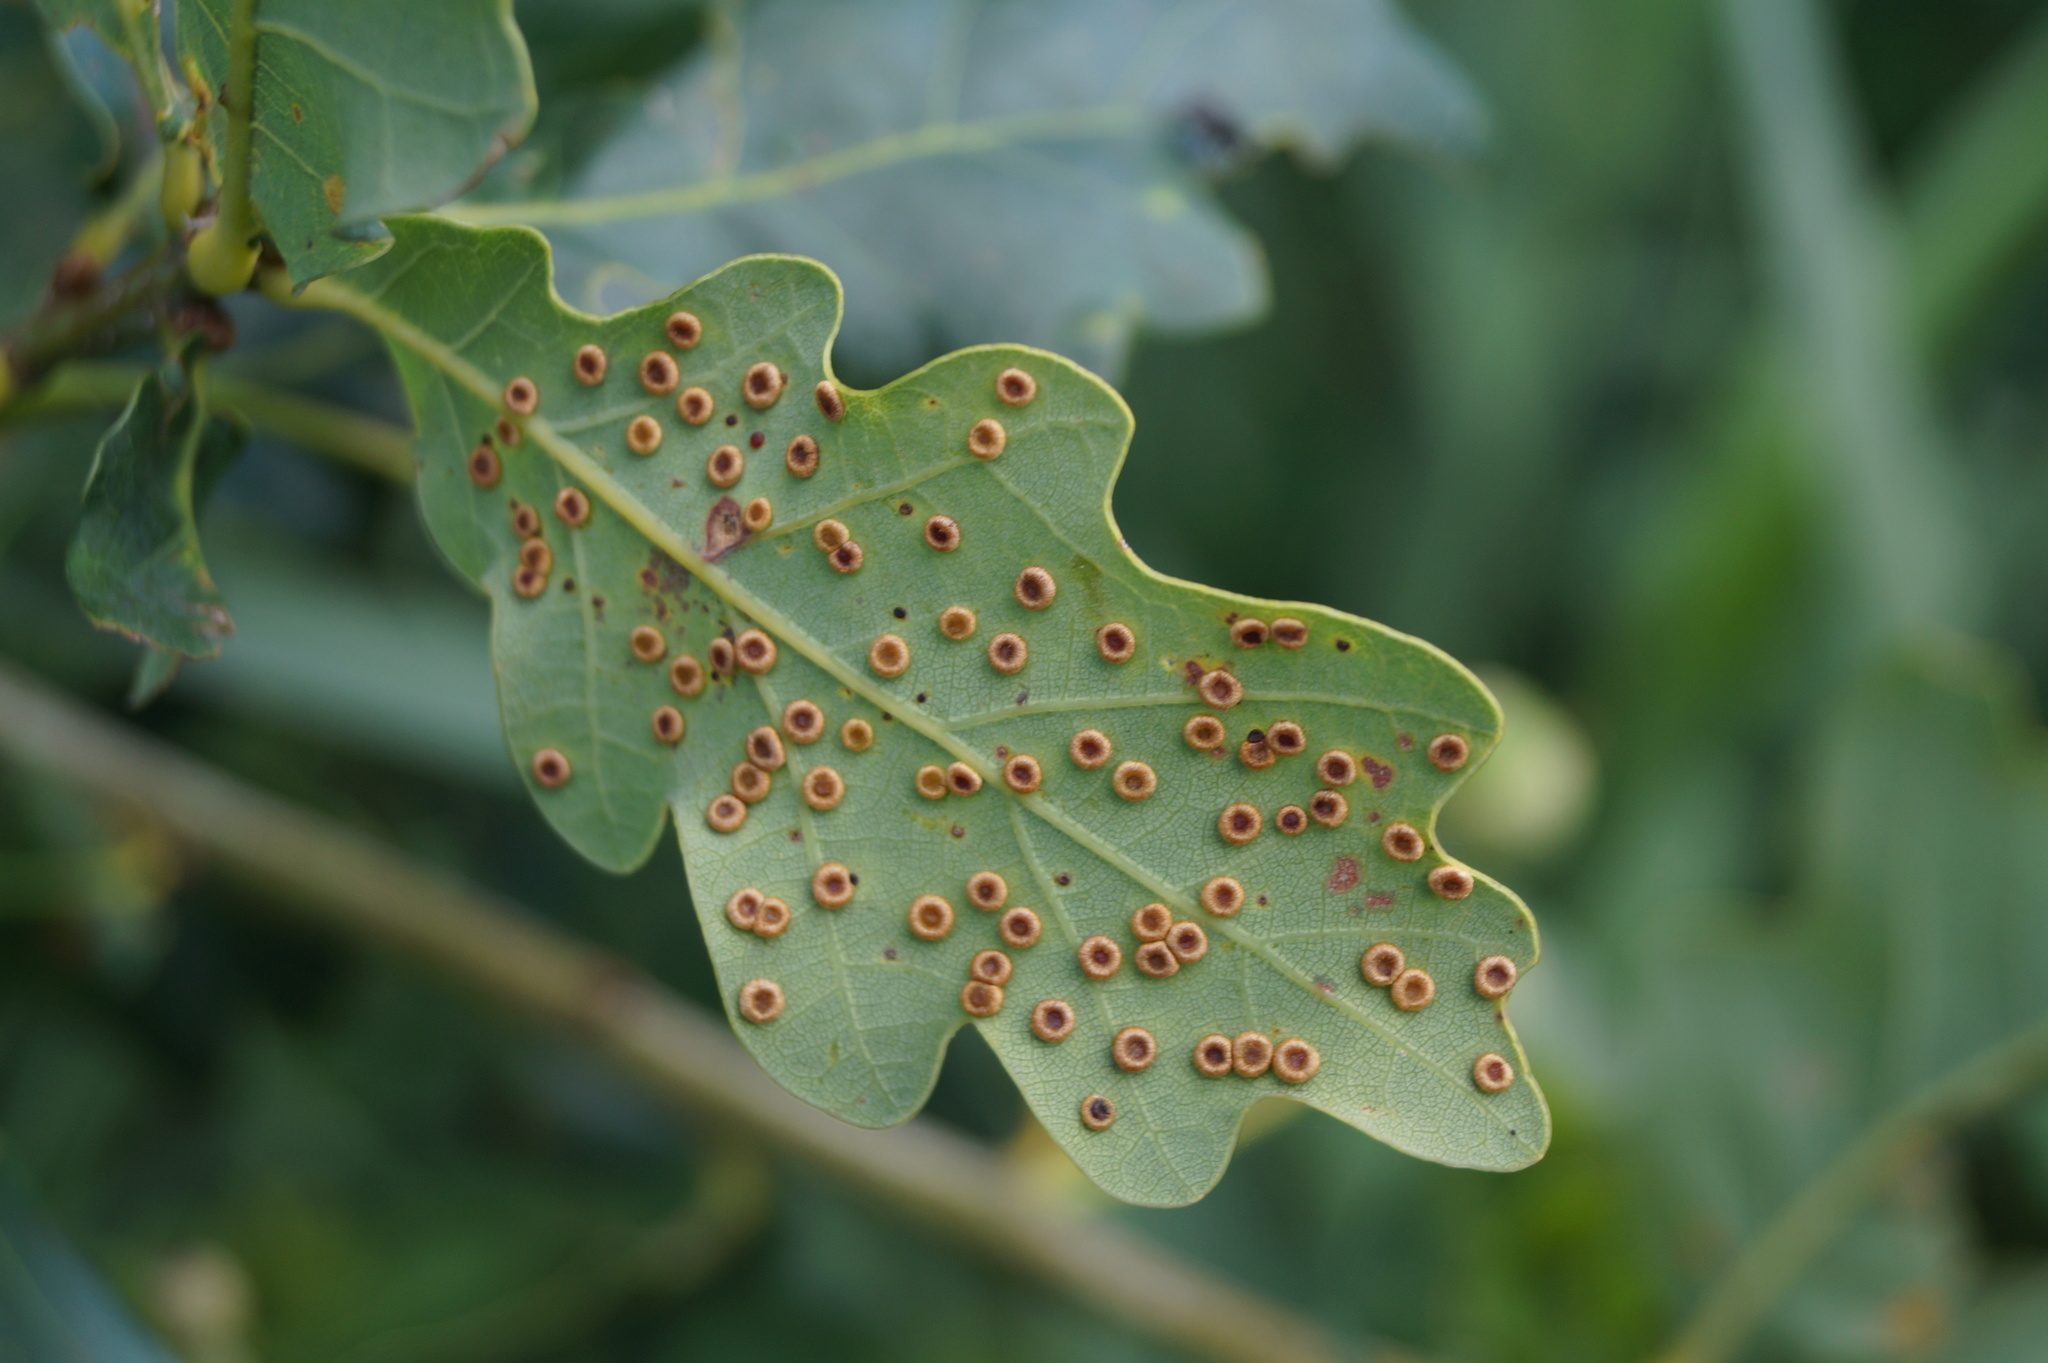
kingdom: Animalia
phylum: Arthropoda
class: Insecta
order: Hymenoptera
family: Cynipidae
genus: Neuroterus
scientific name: Neuroterus numismalis
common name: Silk-button spangle gall
